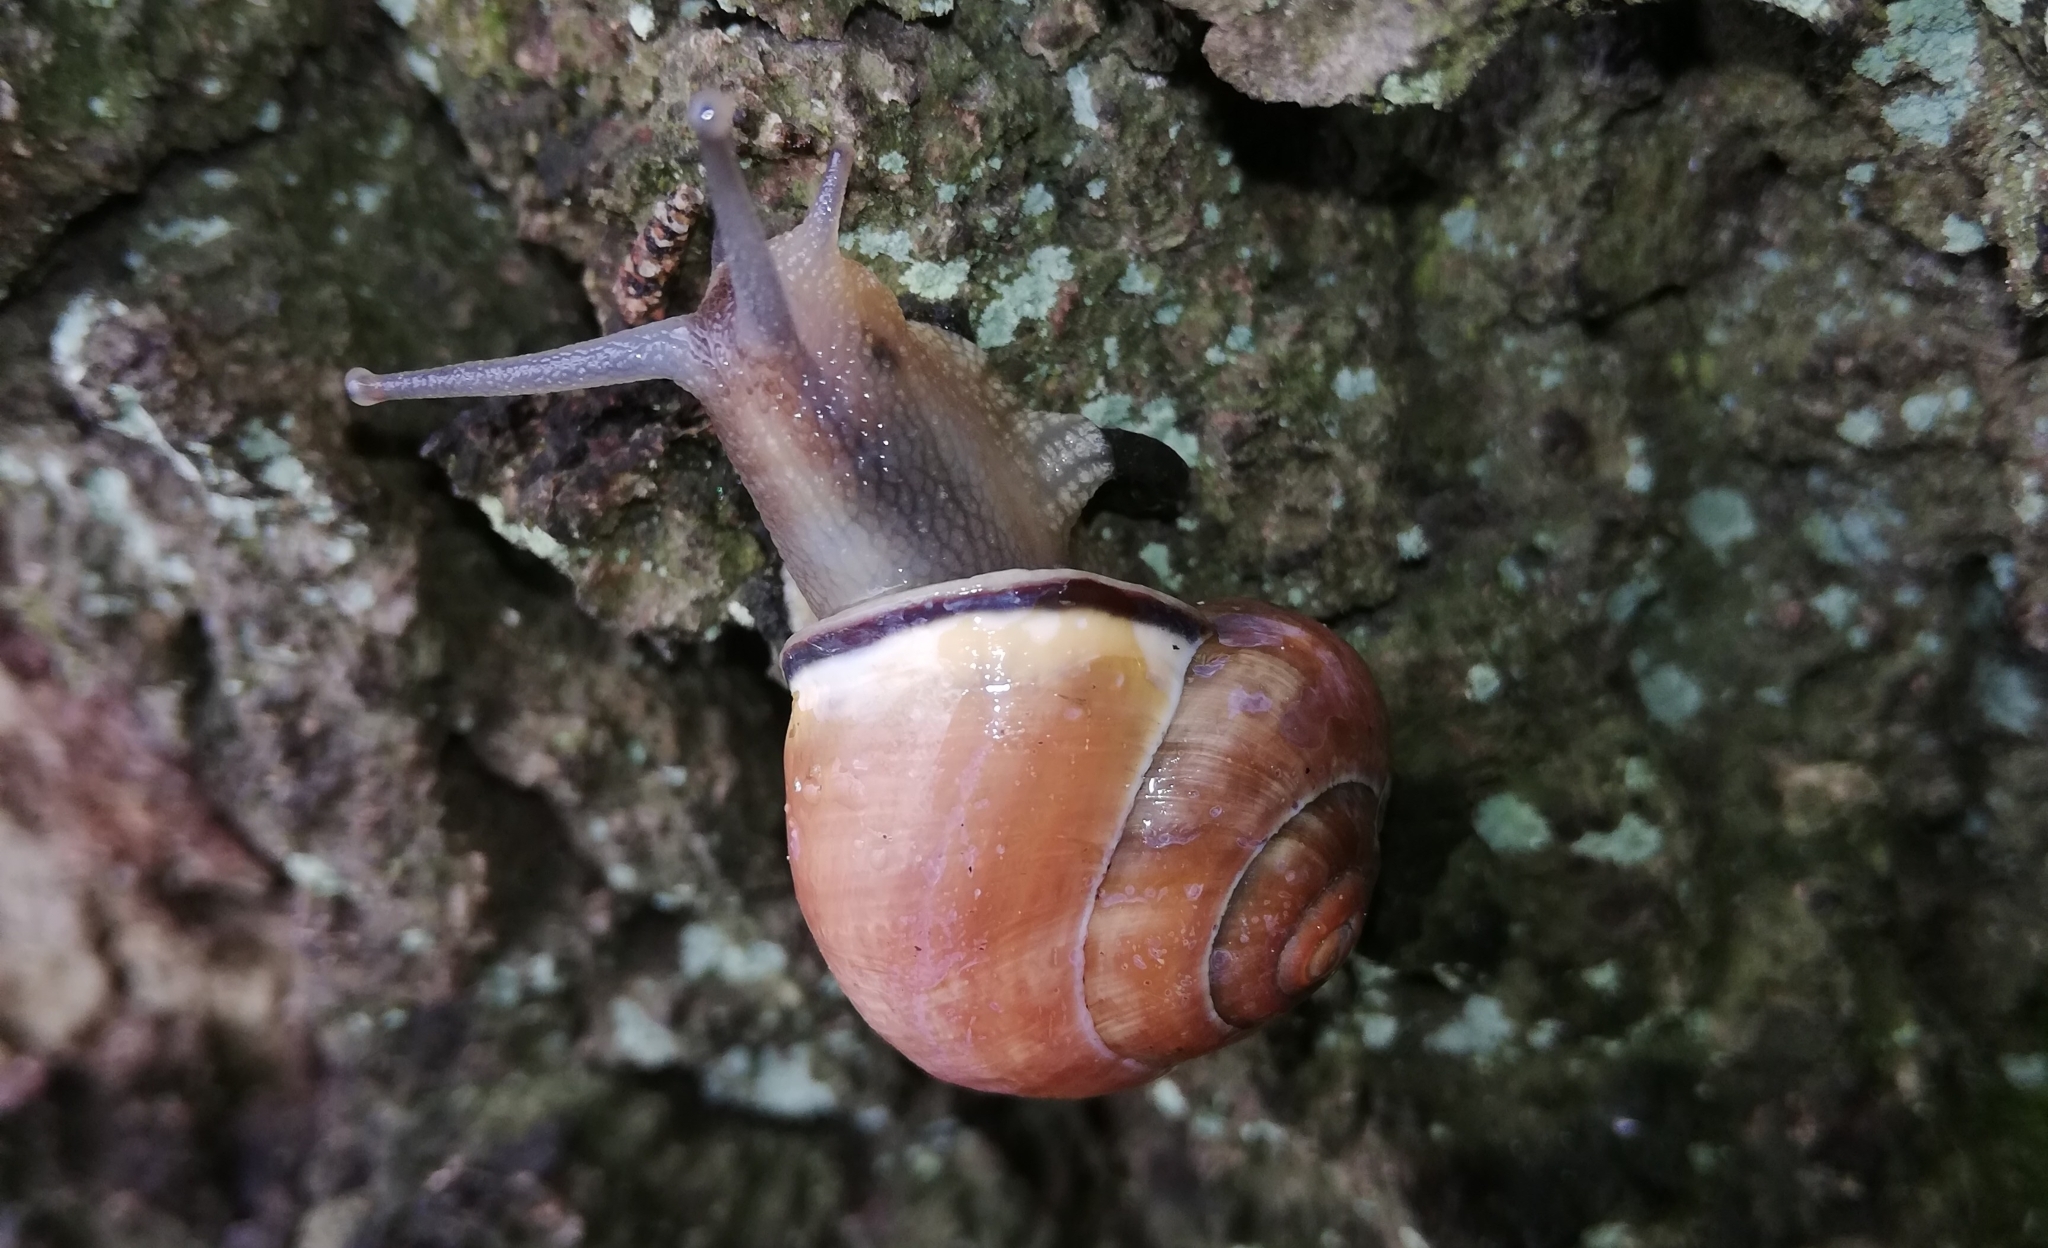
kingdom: Animalia
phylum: Mollusca
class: Gastropoda
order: Stylommatophora
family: Helicidae
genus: Cepaea
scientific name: Cepaea nemoralis
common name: Grovesnail
